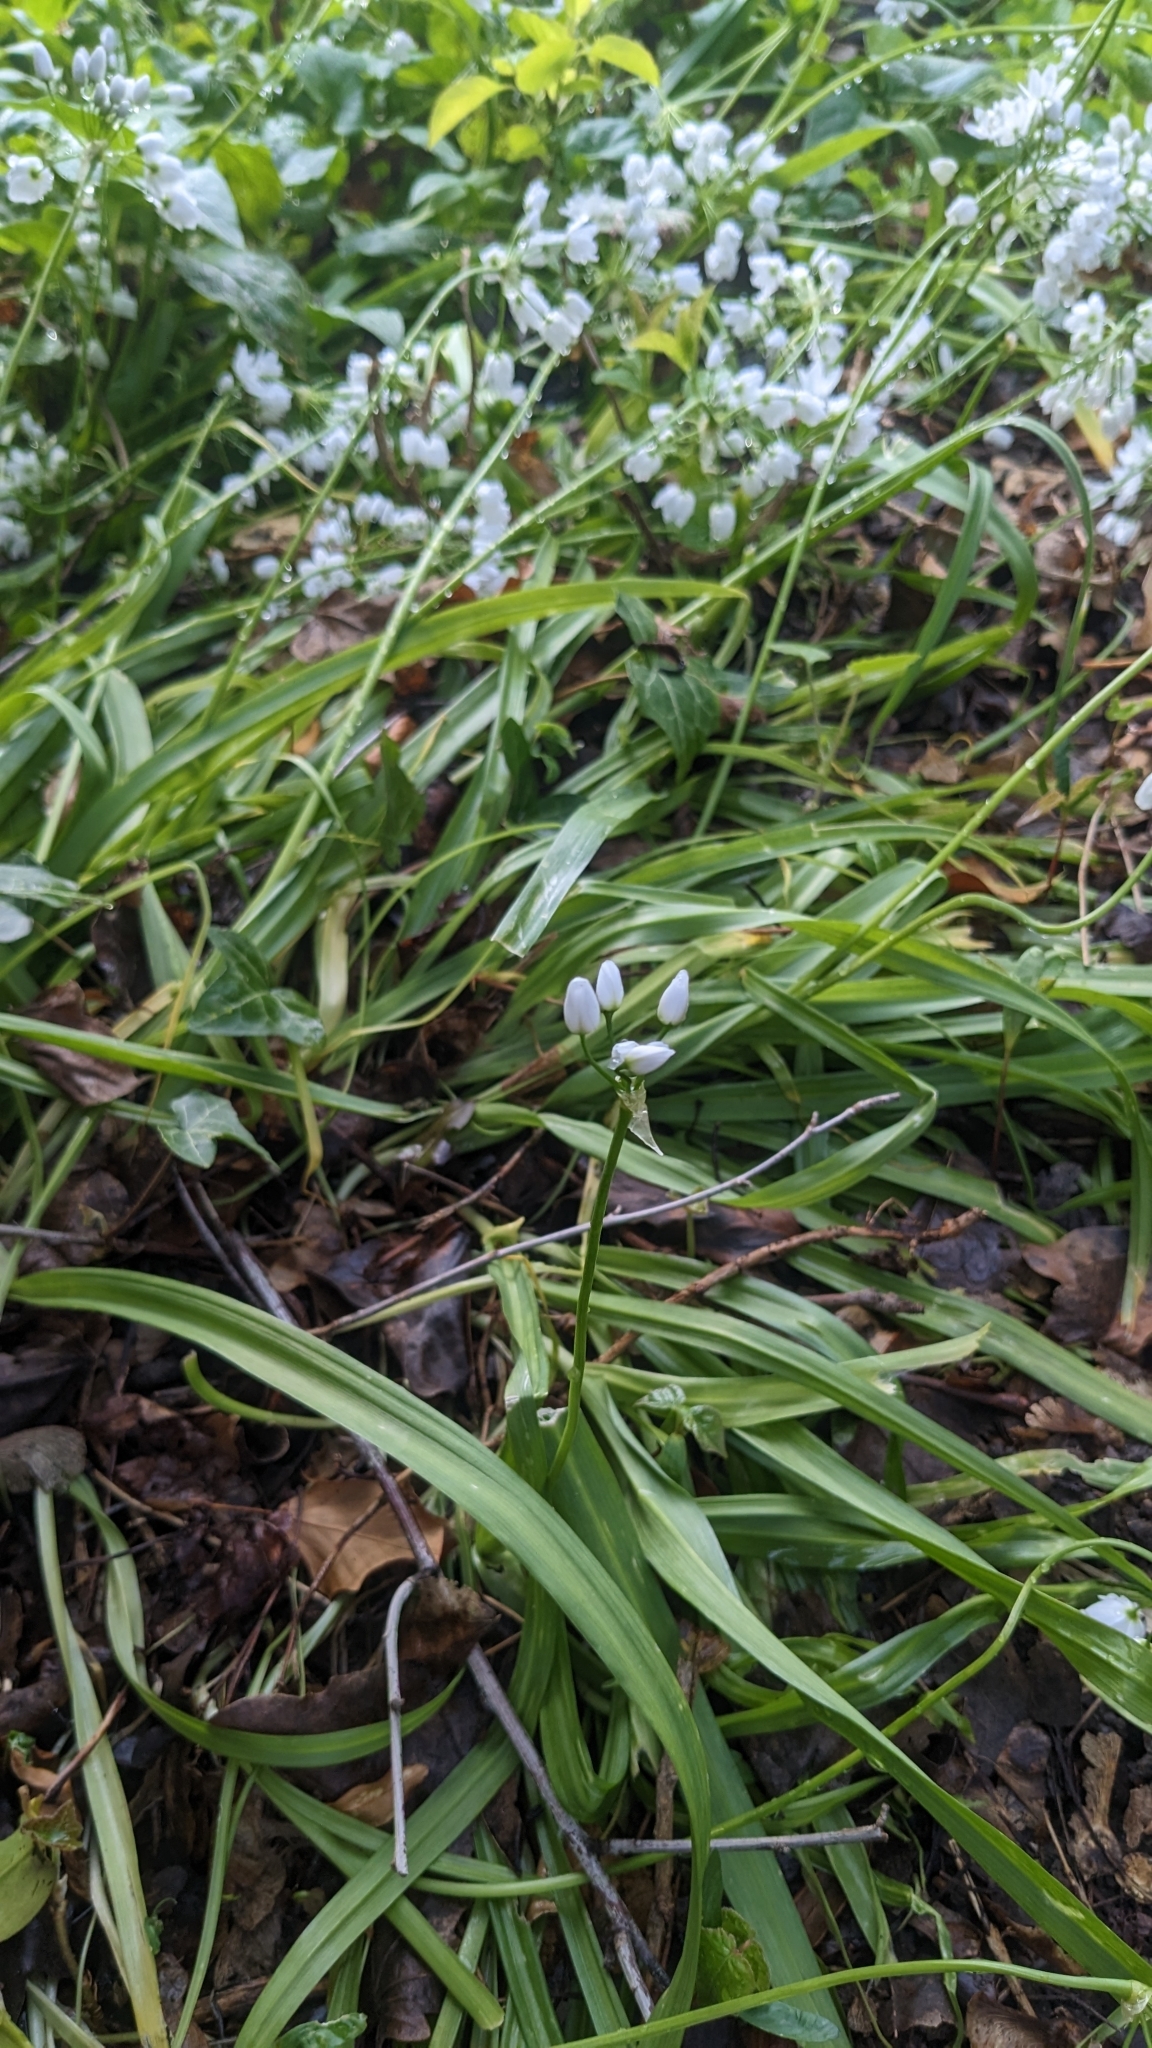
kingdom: Plantae
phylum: Tracheophyta
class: Liliopsida
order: Asparagales
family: Amaryllidaceae
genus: Allium
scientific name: Allium neapolitanum
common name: Neapolitan garlic
